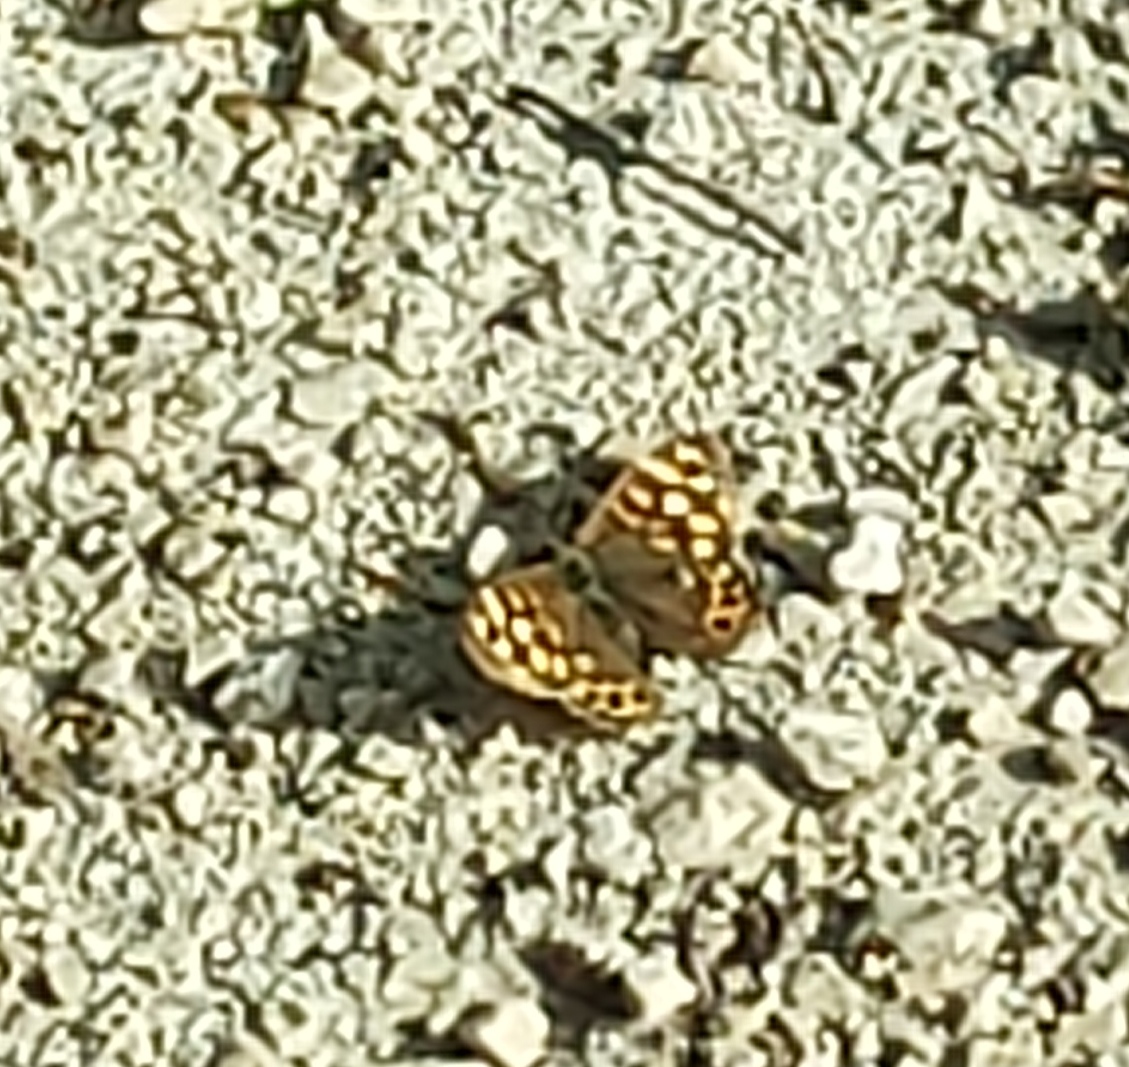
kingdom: Animalia
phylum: Arthropoda
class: Insecta
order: Lepidoptera
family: Nymphalidae
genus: Pararge
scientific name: Pararge aegeria
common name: Speckled wood
